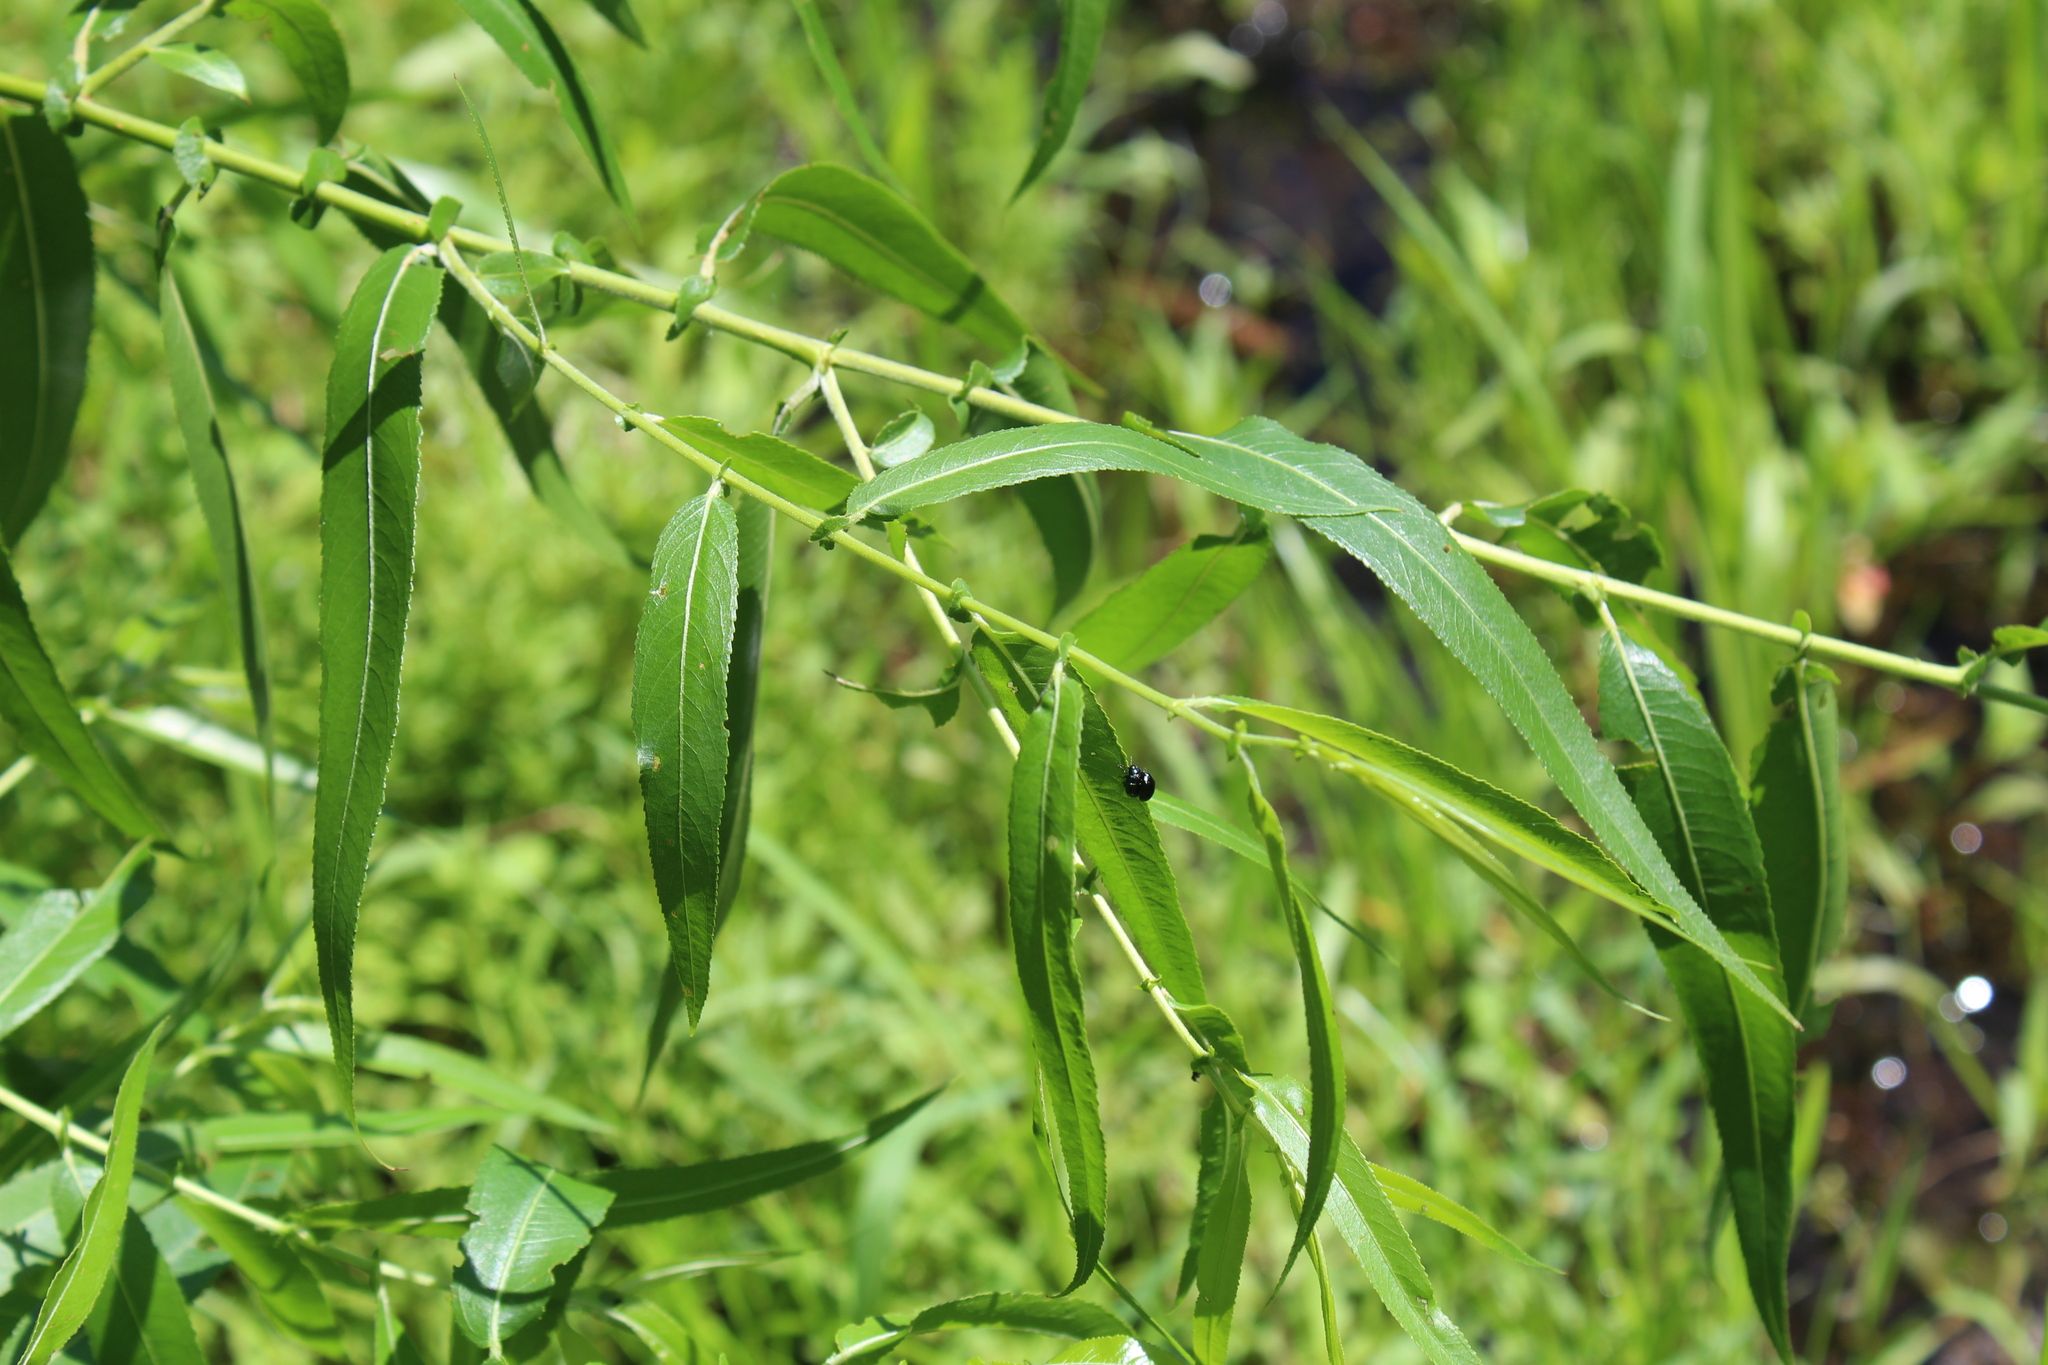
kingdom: Plantae
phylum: Tracheophyta
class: Magnoliopsida
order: Malpighiales
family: Salicaceae
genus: Salix
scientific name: Salix nigra
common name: Black willow
